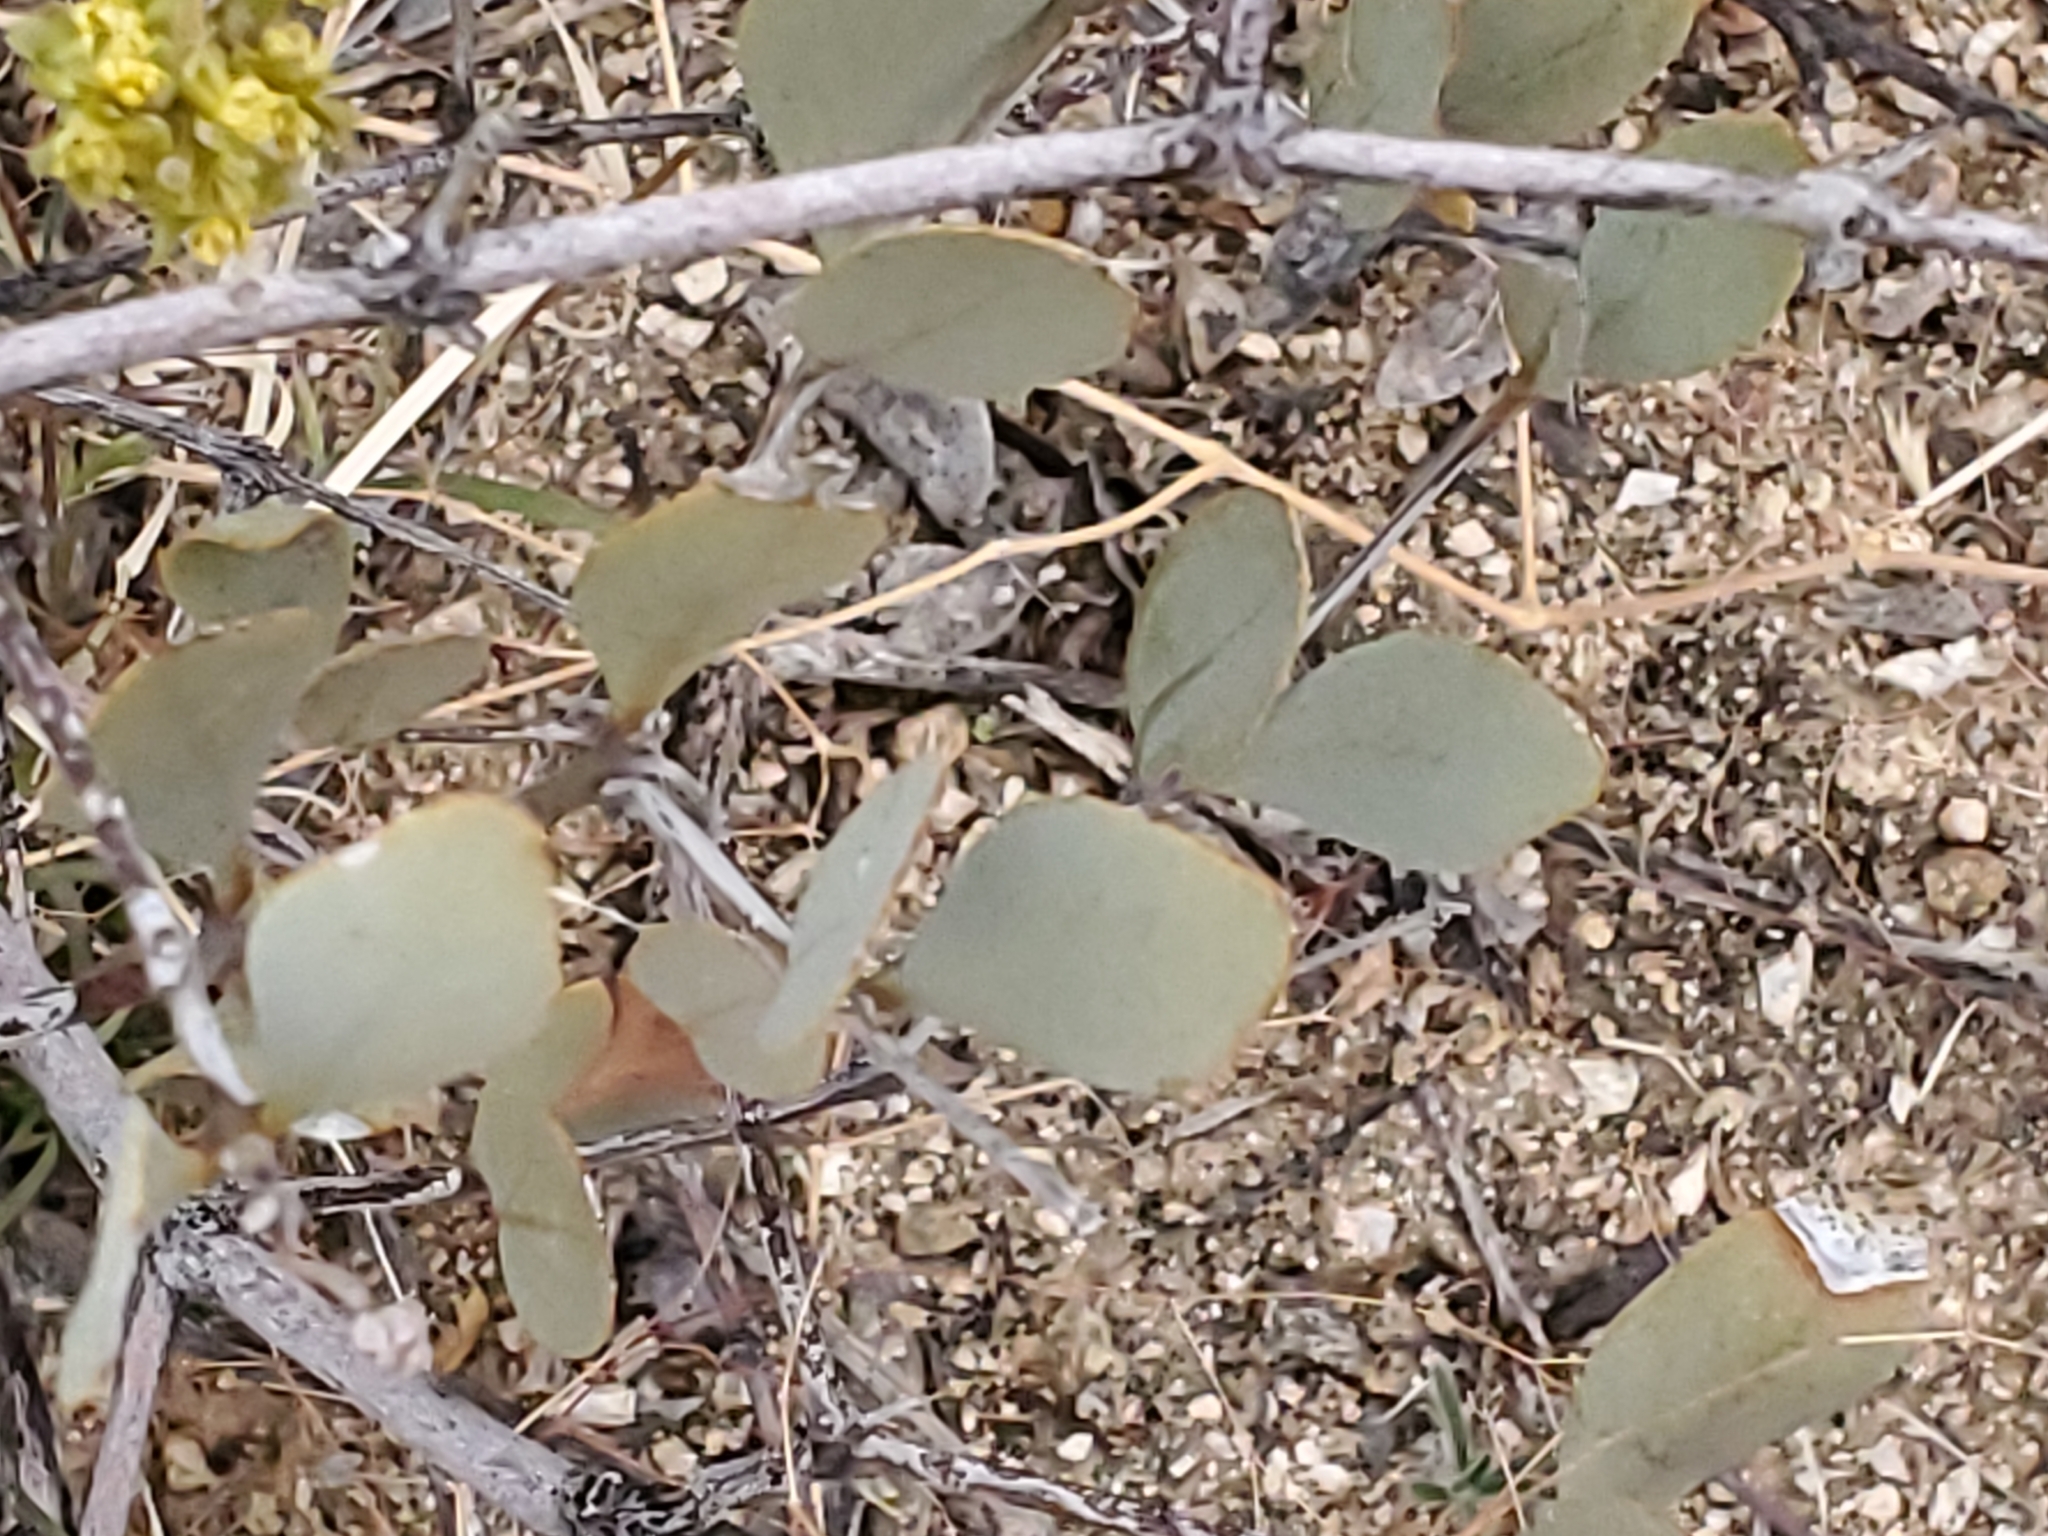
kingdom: Plantae
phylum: Tracheophyta
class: Magnoliopsida
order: Crossosomatales
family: Crossosomataceae
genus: Crossosoma
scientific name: Crossosoma bigelovii
